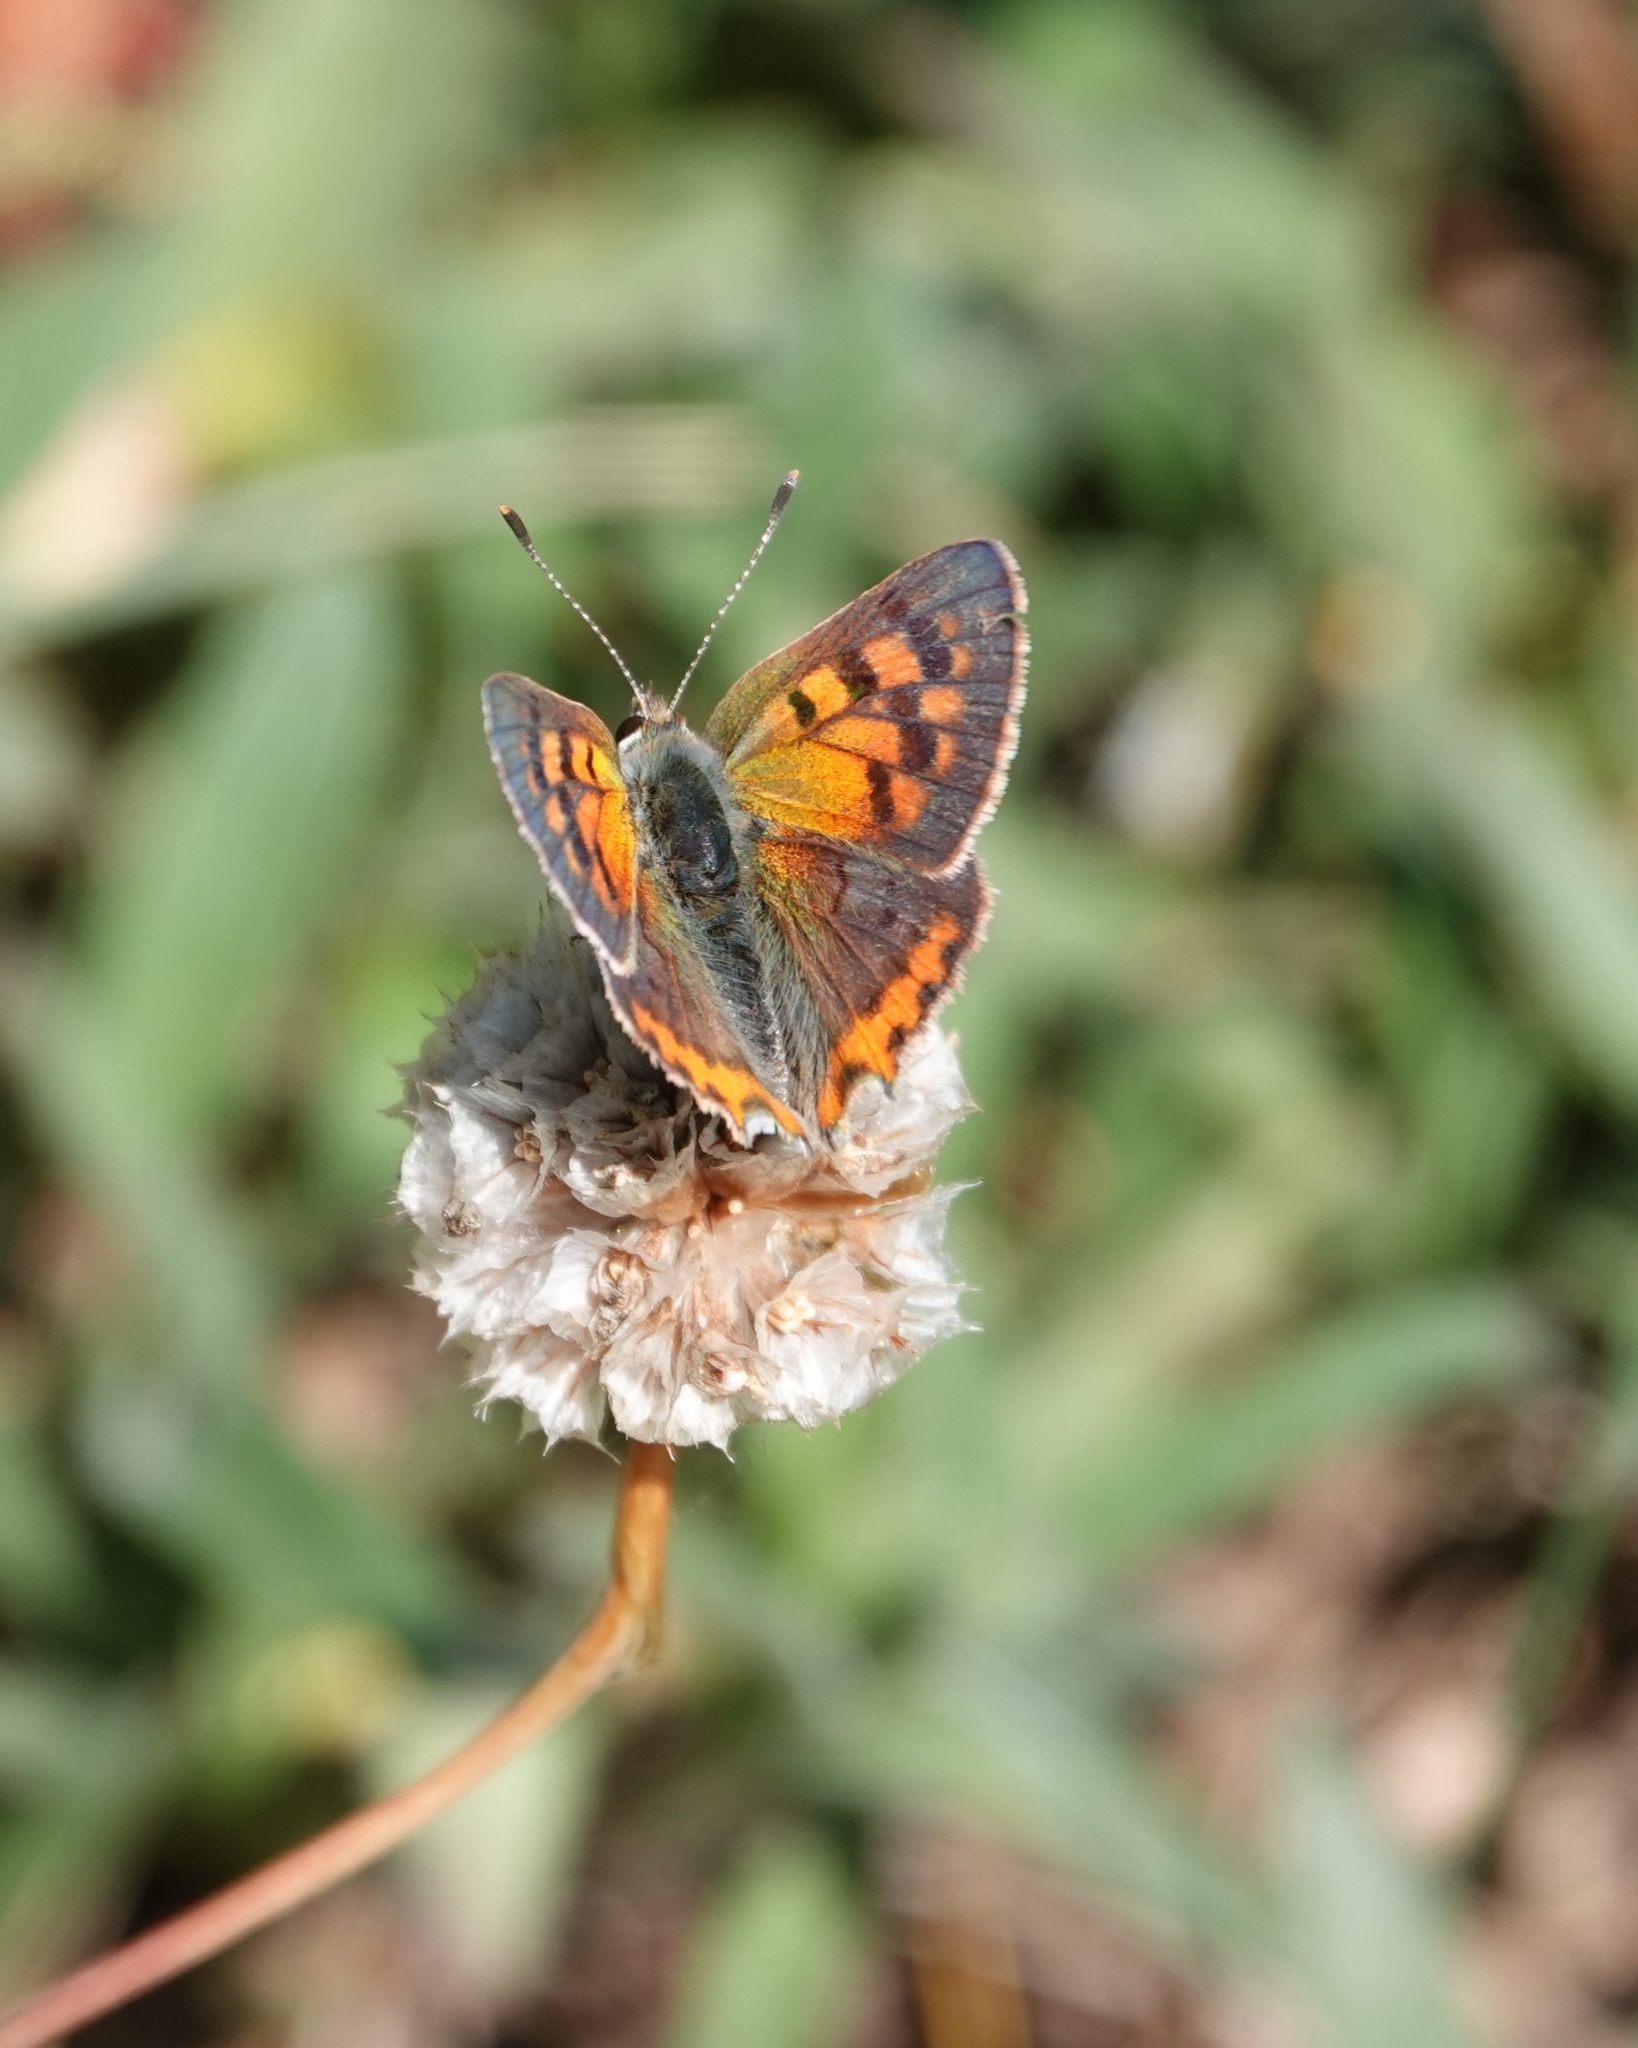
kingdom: Animalia
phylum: Arthropoda
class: Insecta
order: Lepidoptera
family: Lycaenidae
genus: Lycaena
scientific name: Lycaena phlaeas
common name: Small copper
